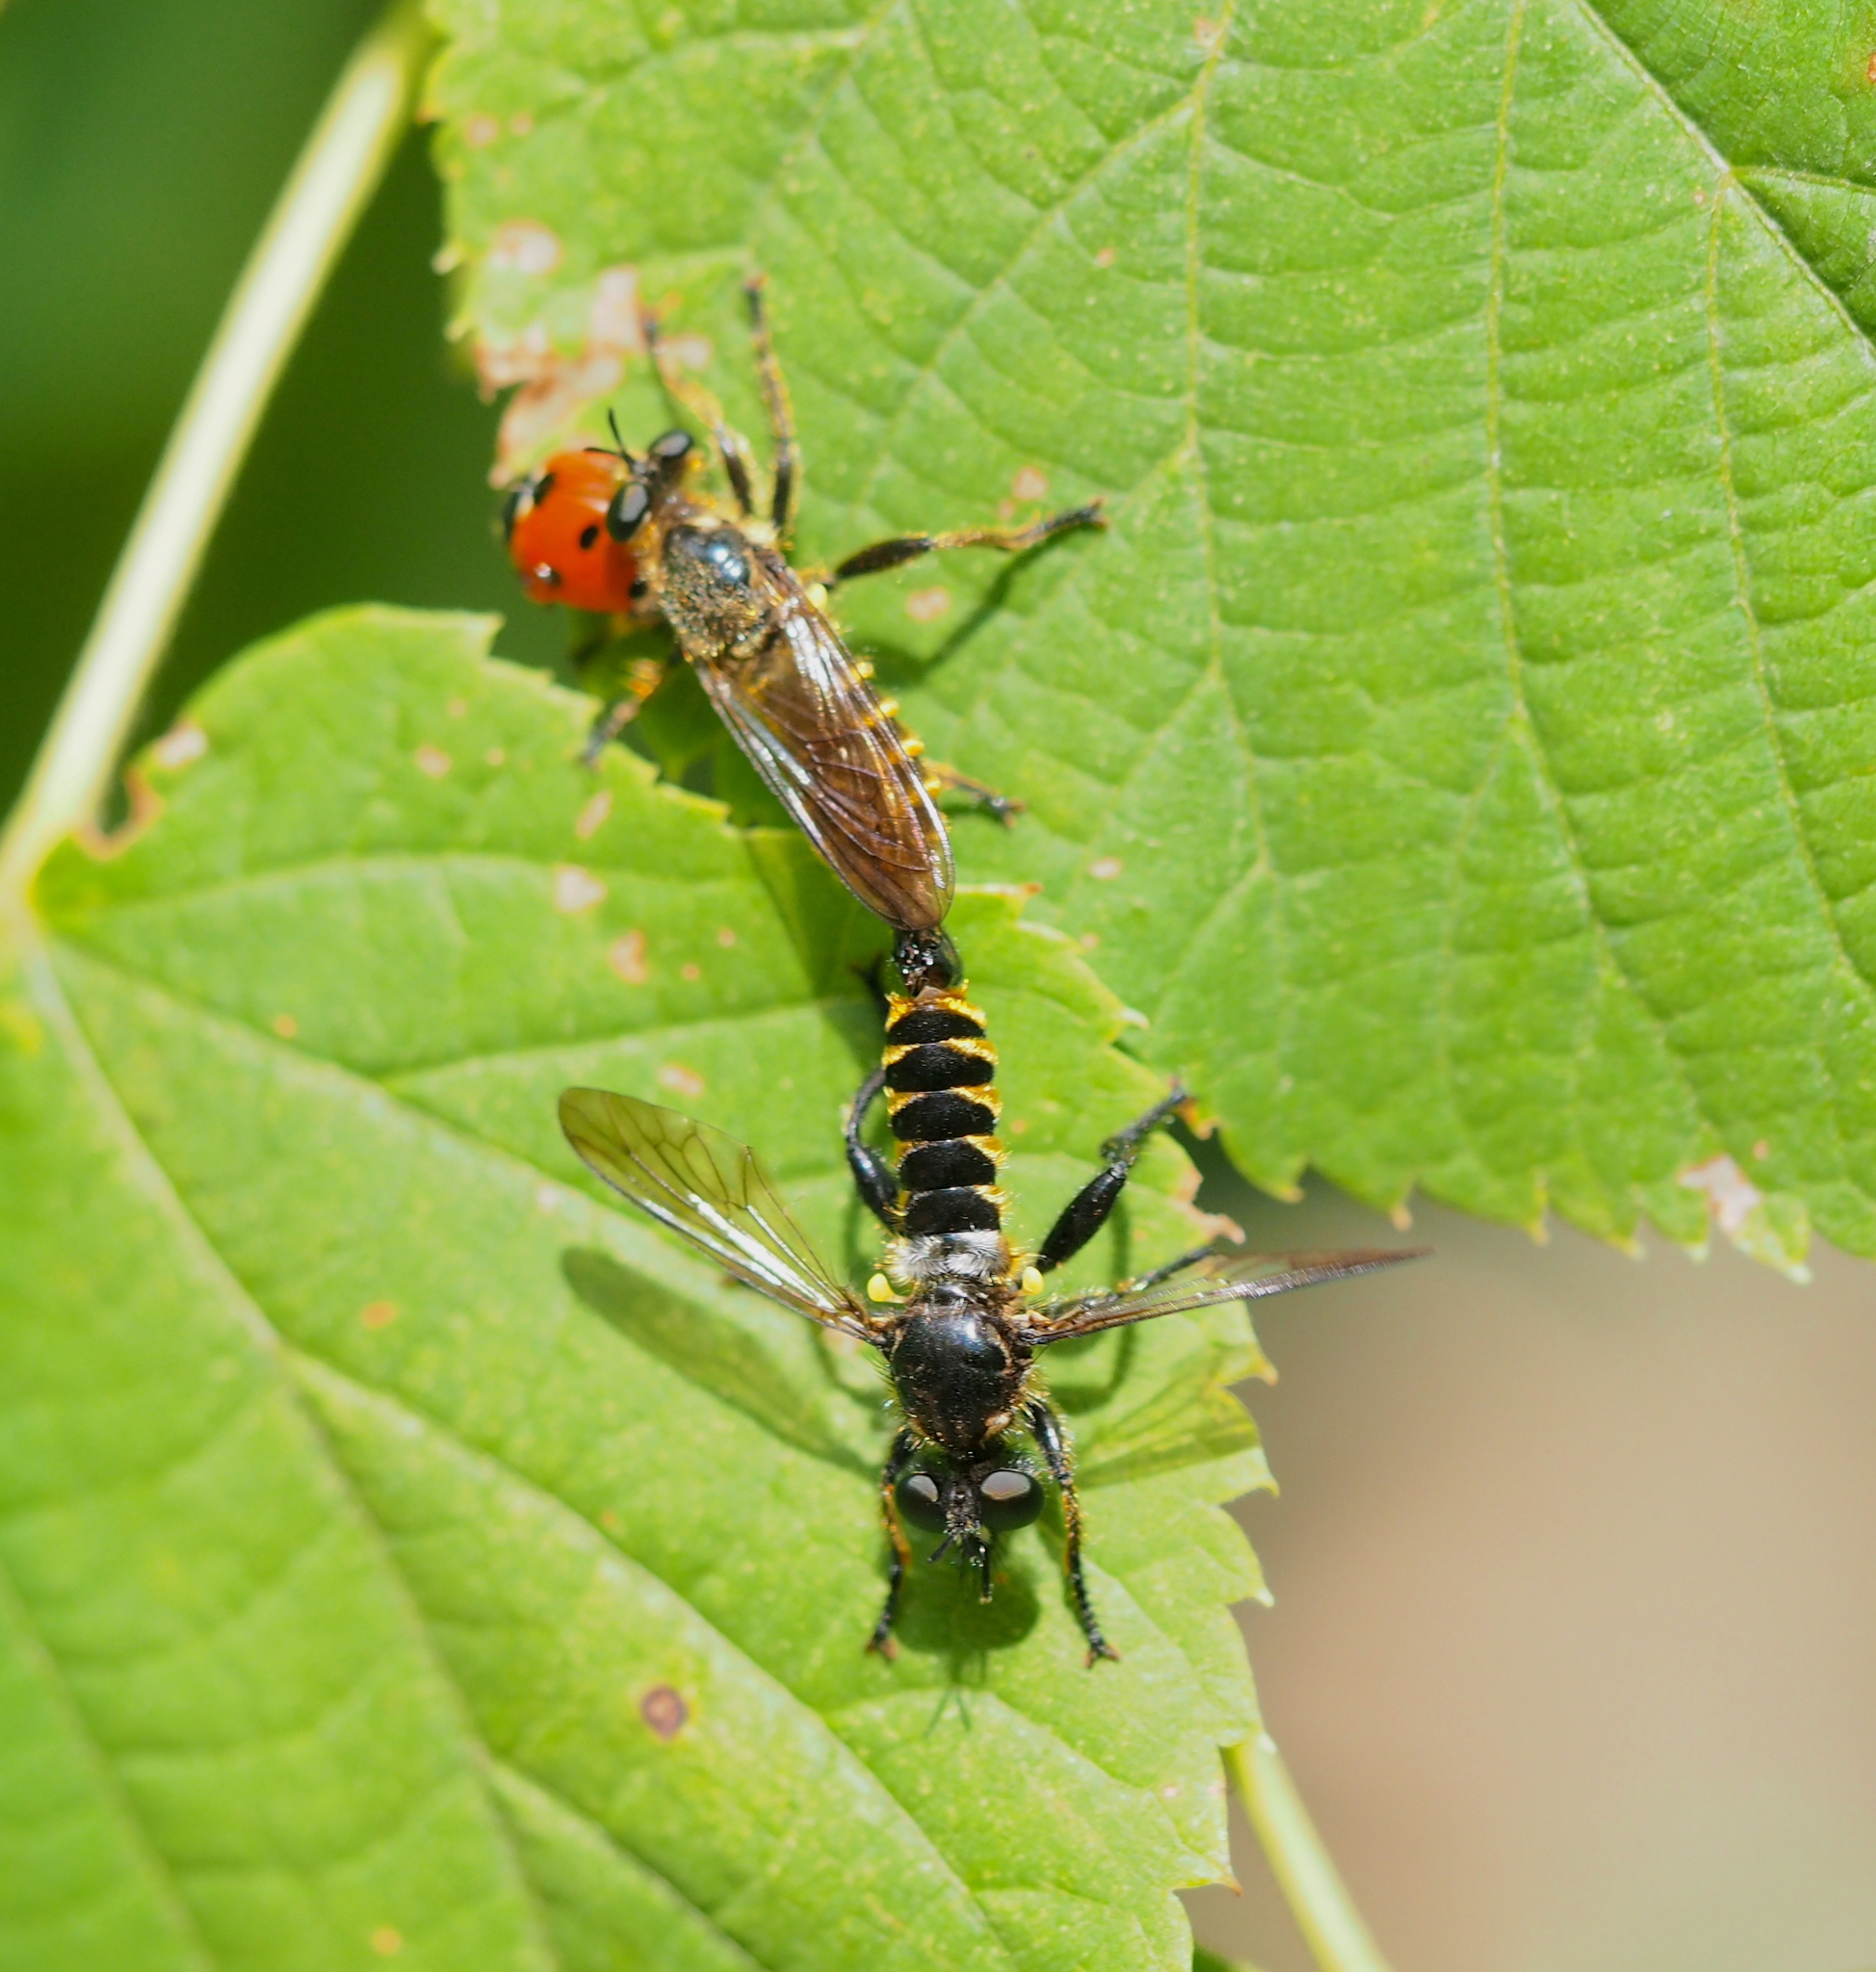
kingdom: Animalia
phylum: Arthropoda
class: Insecta
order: Diptera
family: Asilidae
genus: Lamyra
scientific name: Lamyra fimbriata
